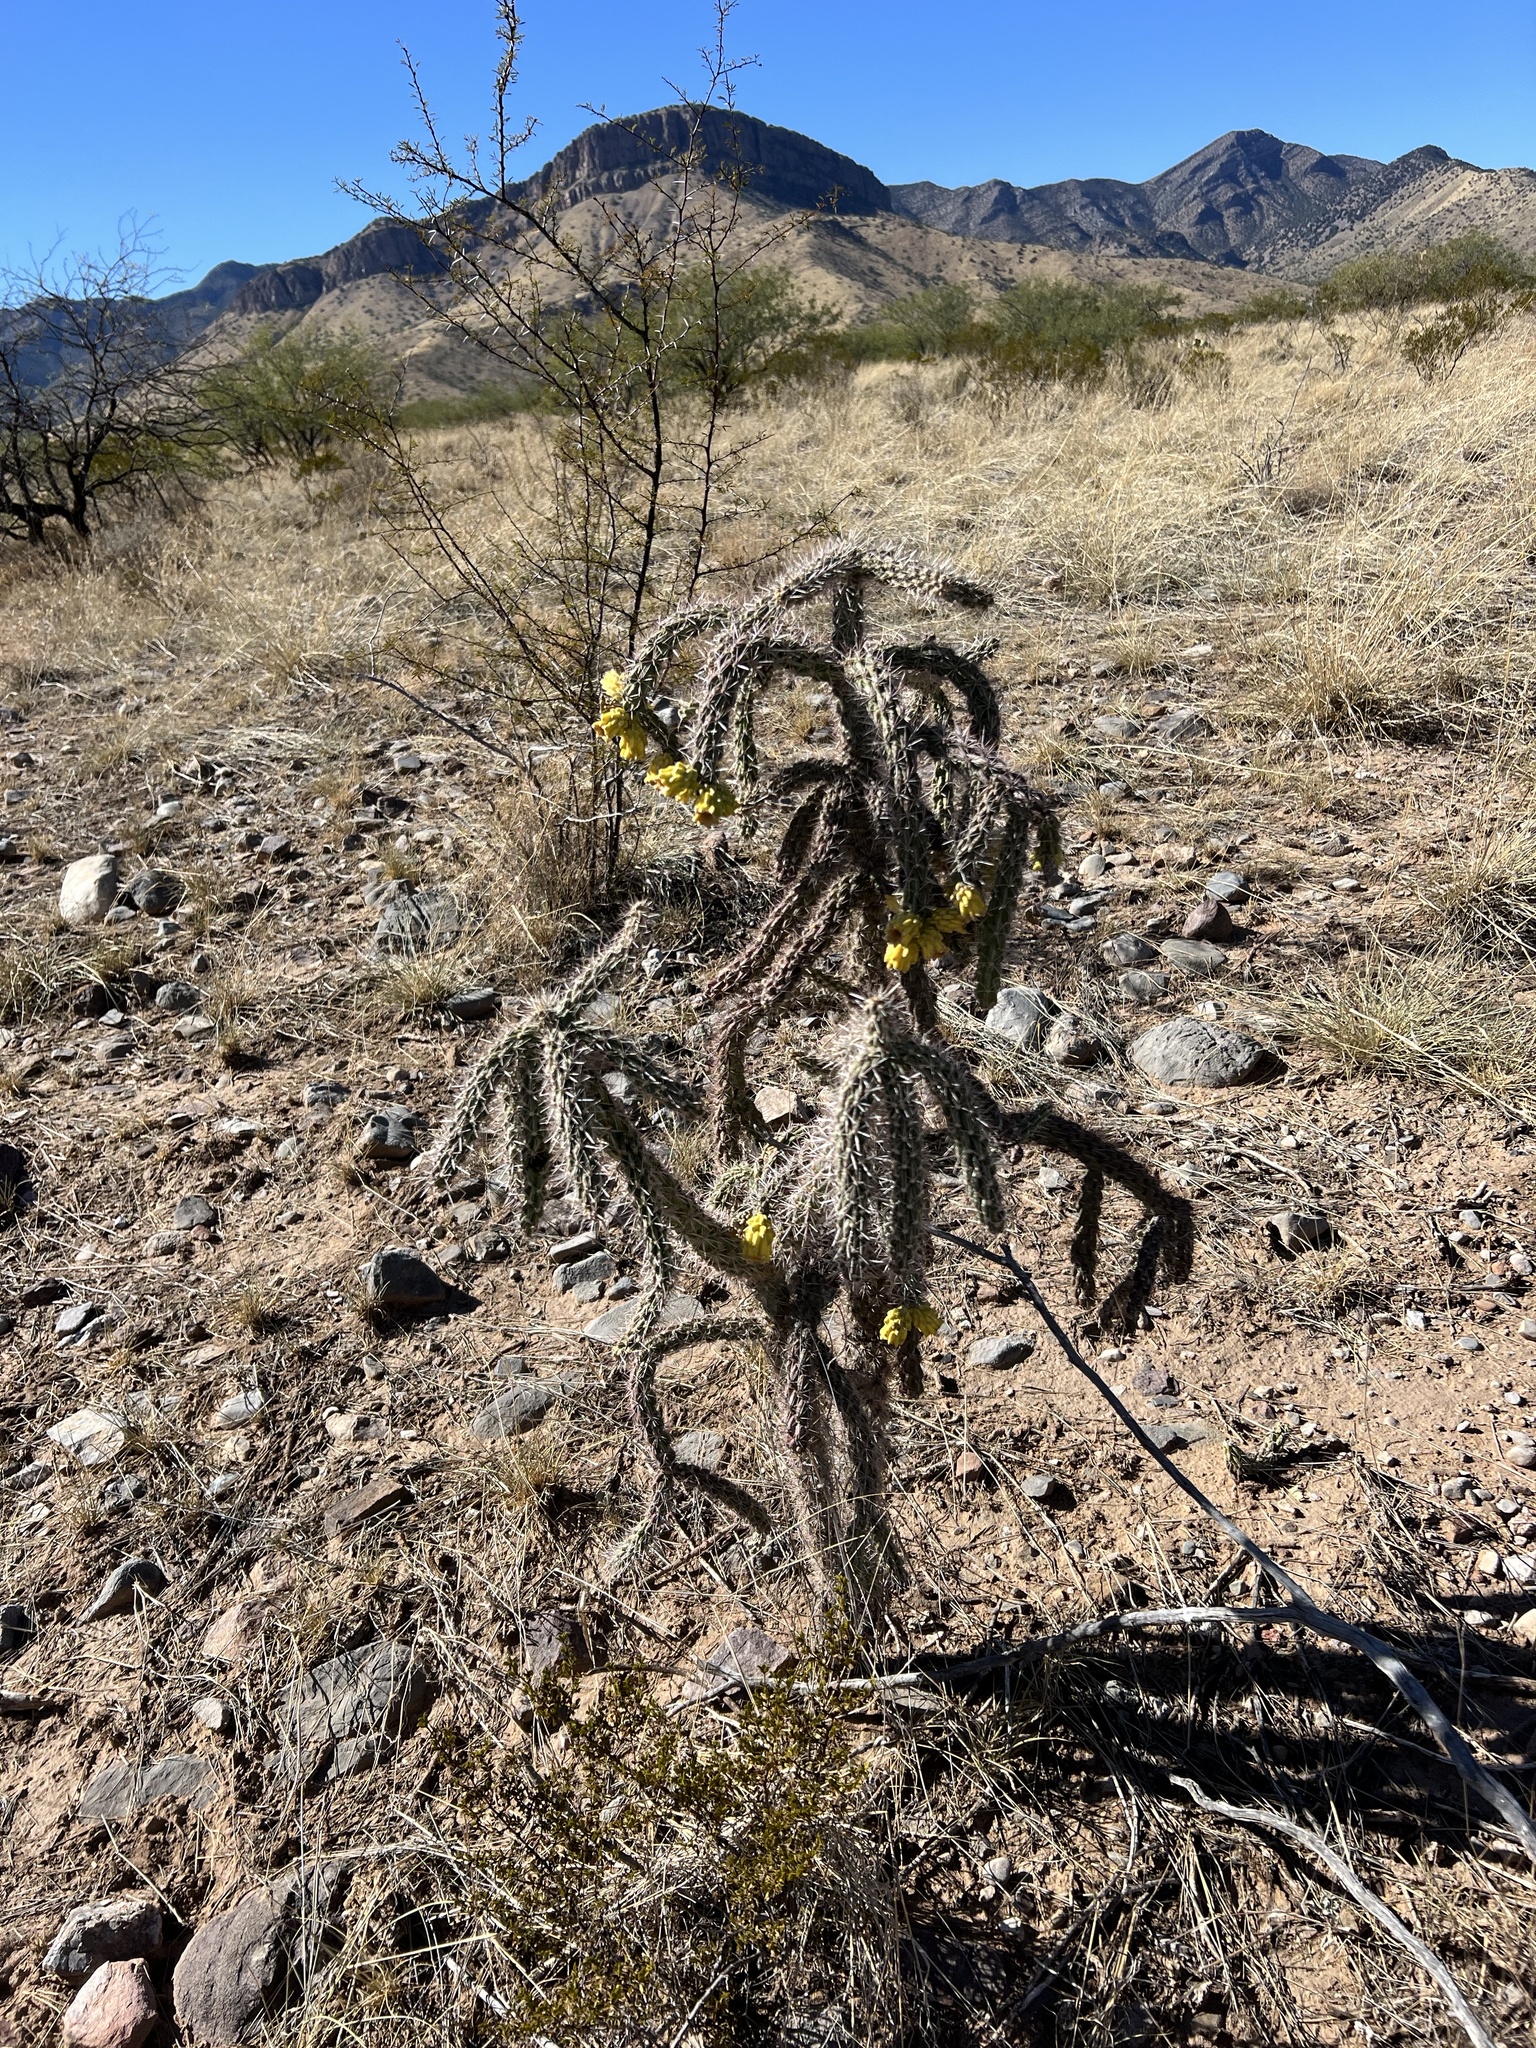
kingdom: Plantae
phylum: Tracheophyta
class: Magnoliopsida
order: Caryophyllales
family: Cactaceae
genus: Cylindropuntia
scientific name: Cylindropuntia imbricata
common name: Candelabrum cactus
